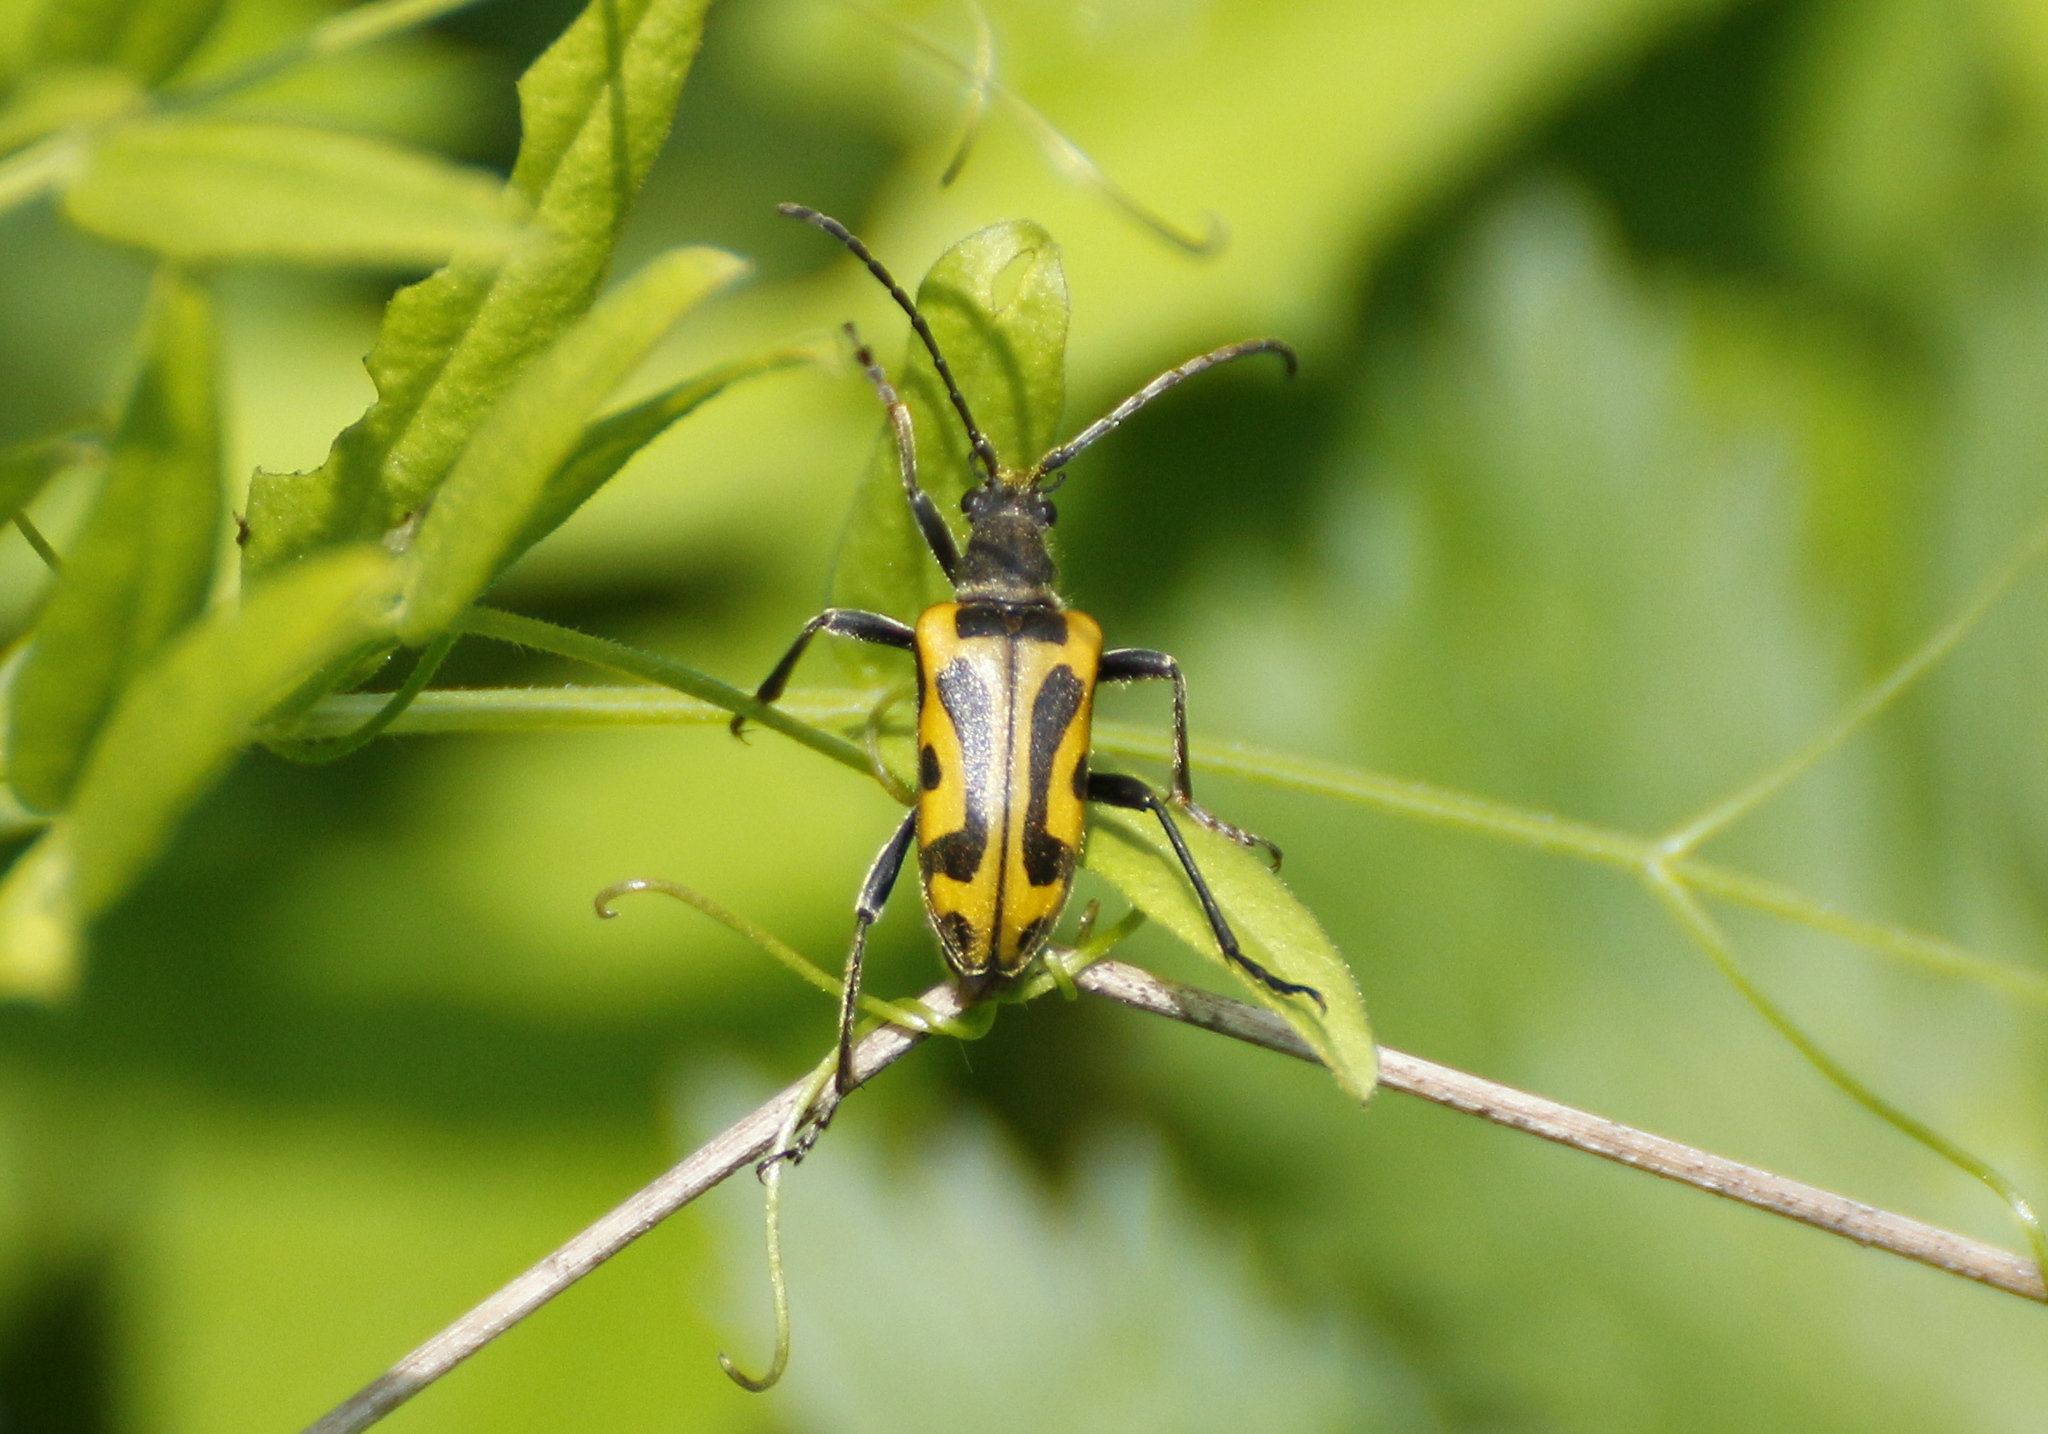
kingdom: Animalia
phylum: Arthropoda
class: Insecta
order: Coleoptera
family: Cerambycidae
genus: Brachyta
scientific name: Brachyta interrogationis
